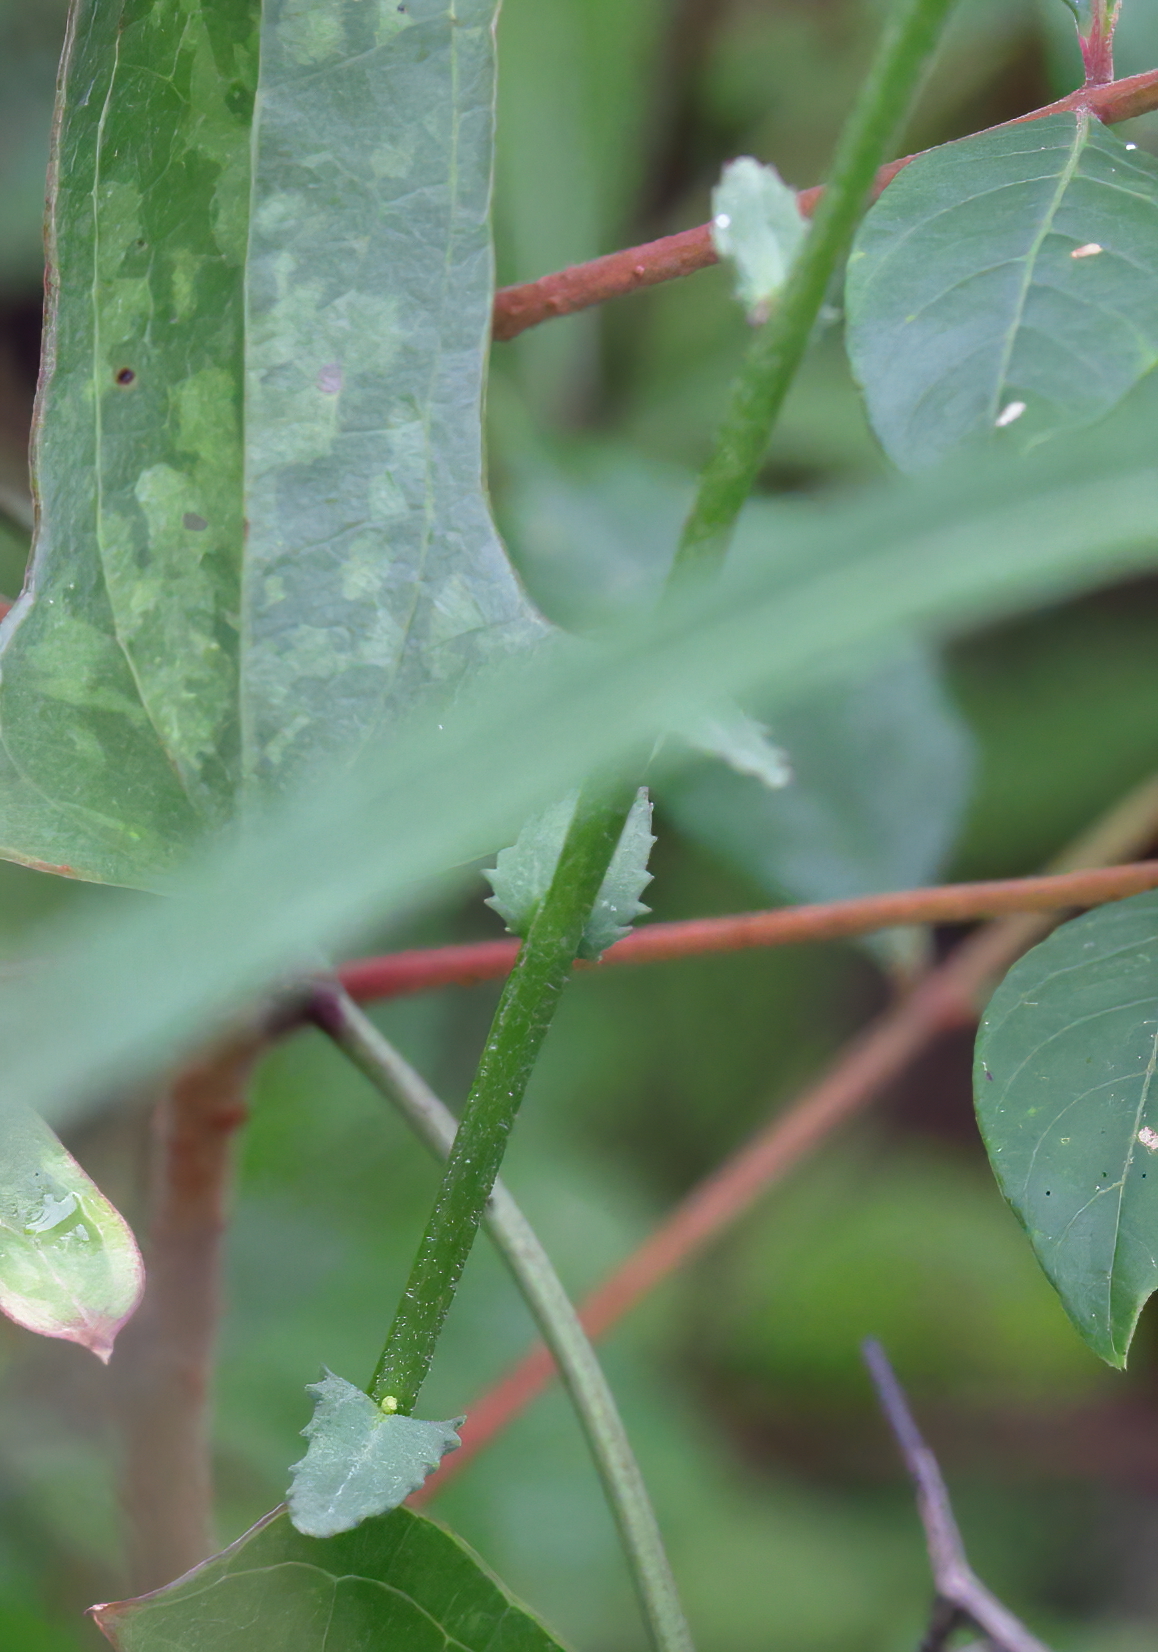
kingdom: Plantae
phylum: Tracheophyta
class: Magnoliopsida
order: Asterales
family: Campanulaceae
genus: Lobelia
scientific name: Lobelia brevifolia
